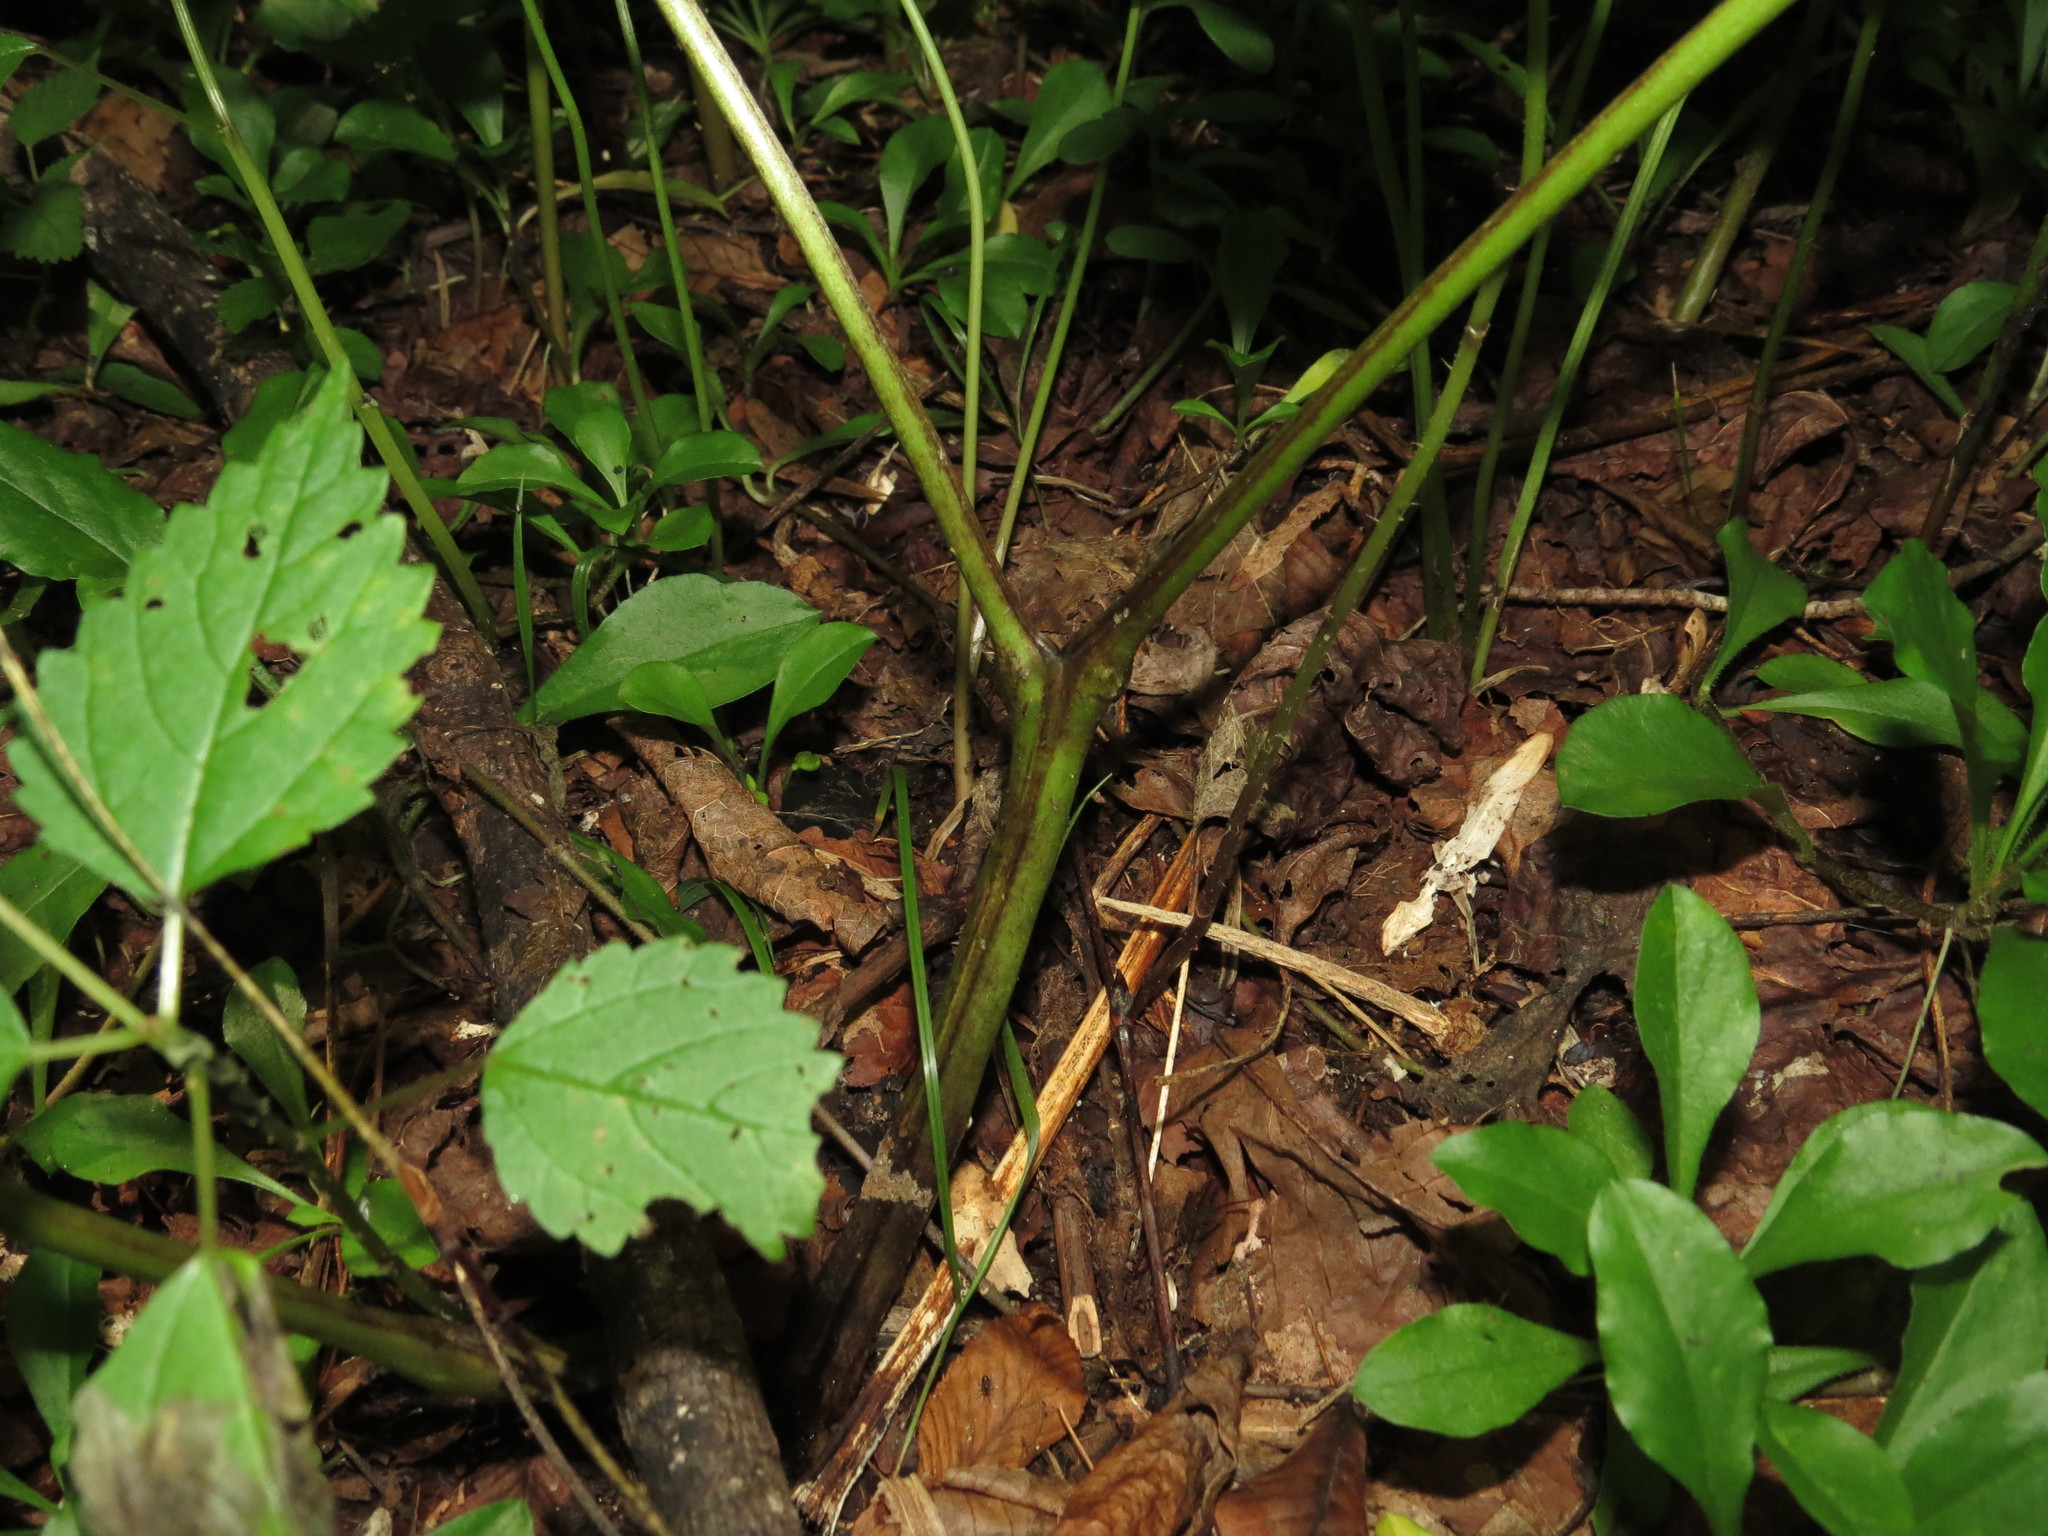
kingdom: Plantae
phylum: Tracheophyta
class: Magnoliopsida
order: Ranunculales
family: Ranunculaceae
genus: Actaea
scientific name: Actaea podocarpa
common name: American bugbane
